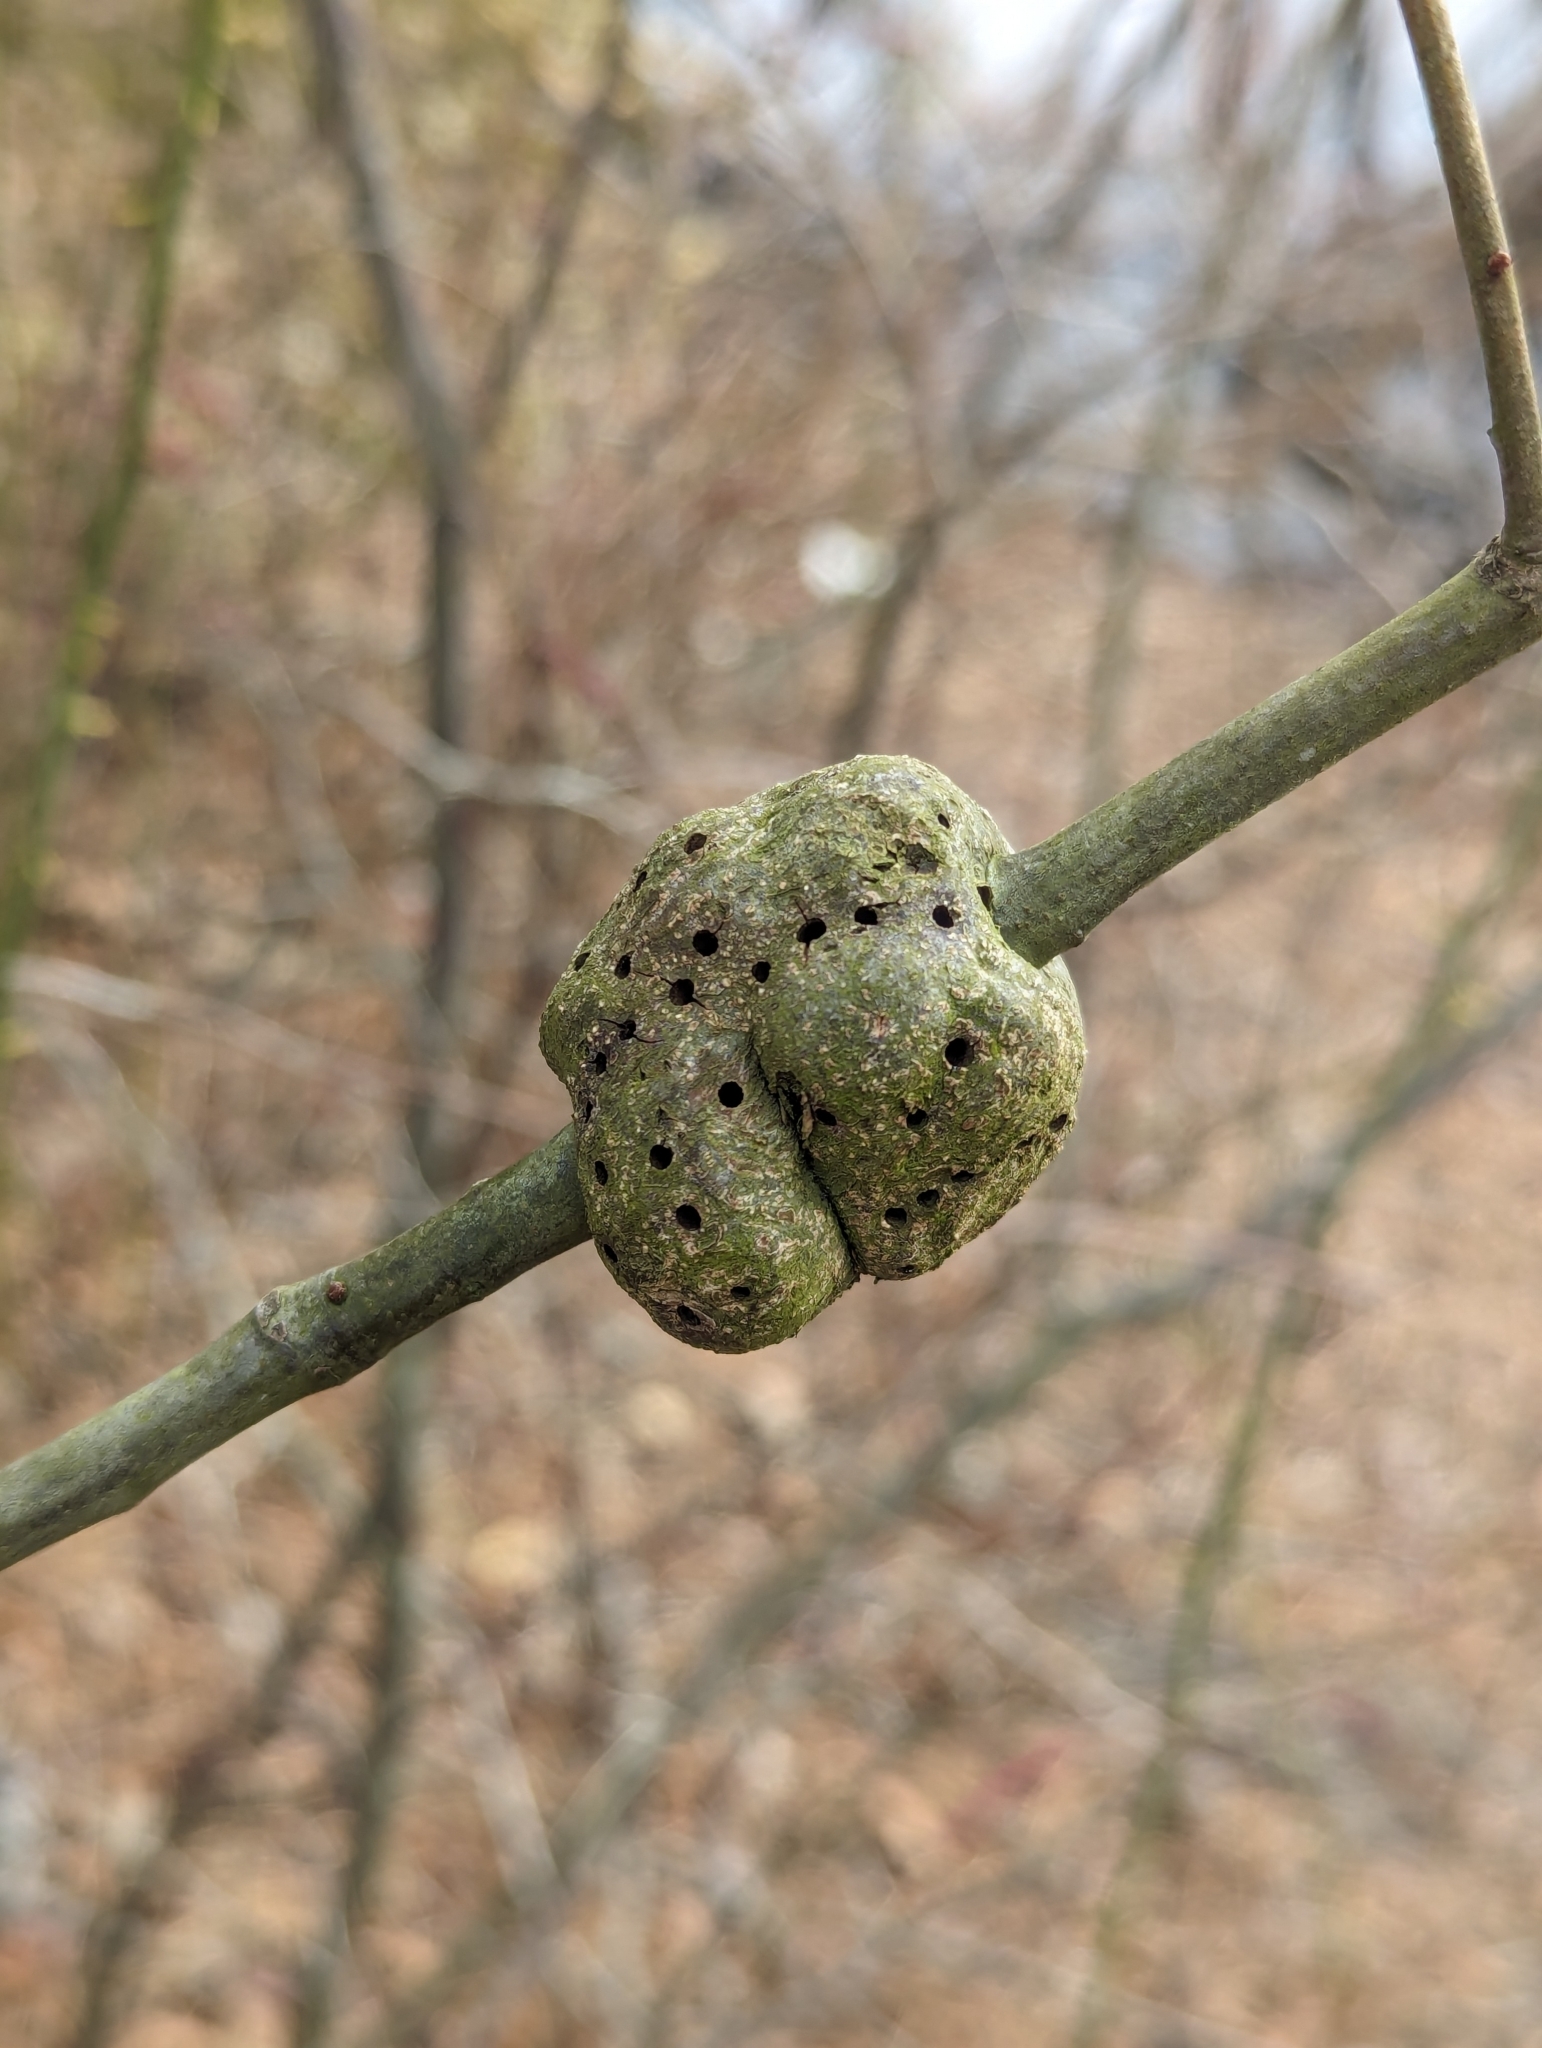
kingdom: Animalia
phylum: Arthropoda
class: Insecta
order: Hymenoptera
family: Cynipidae
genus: Callirhytis
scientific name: Callirhytis
